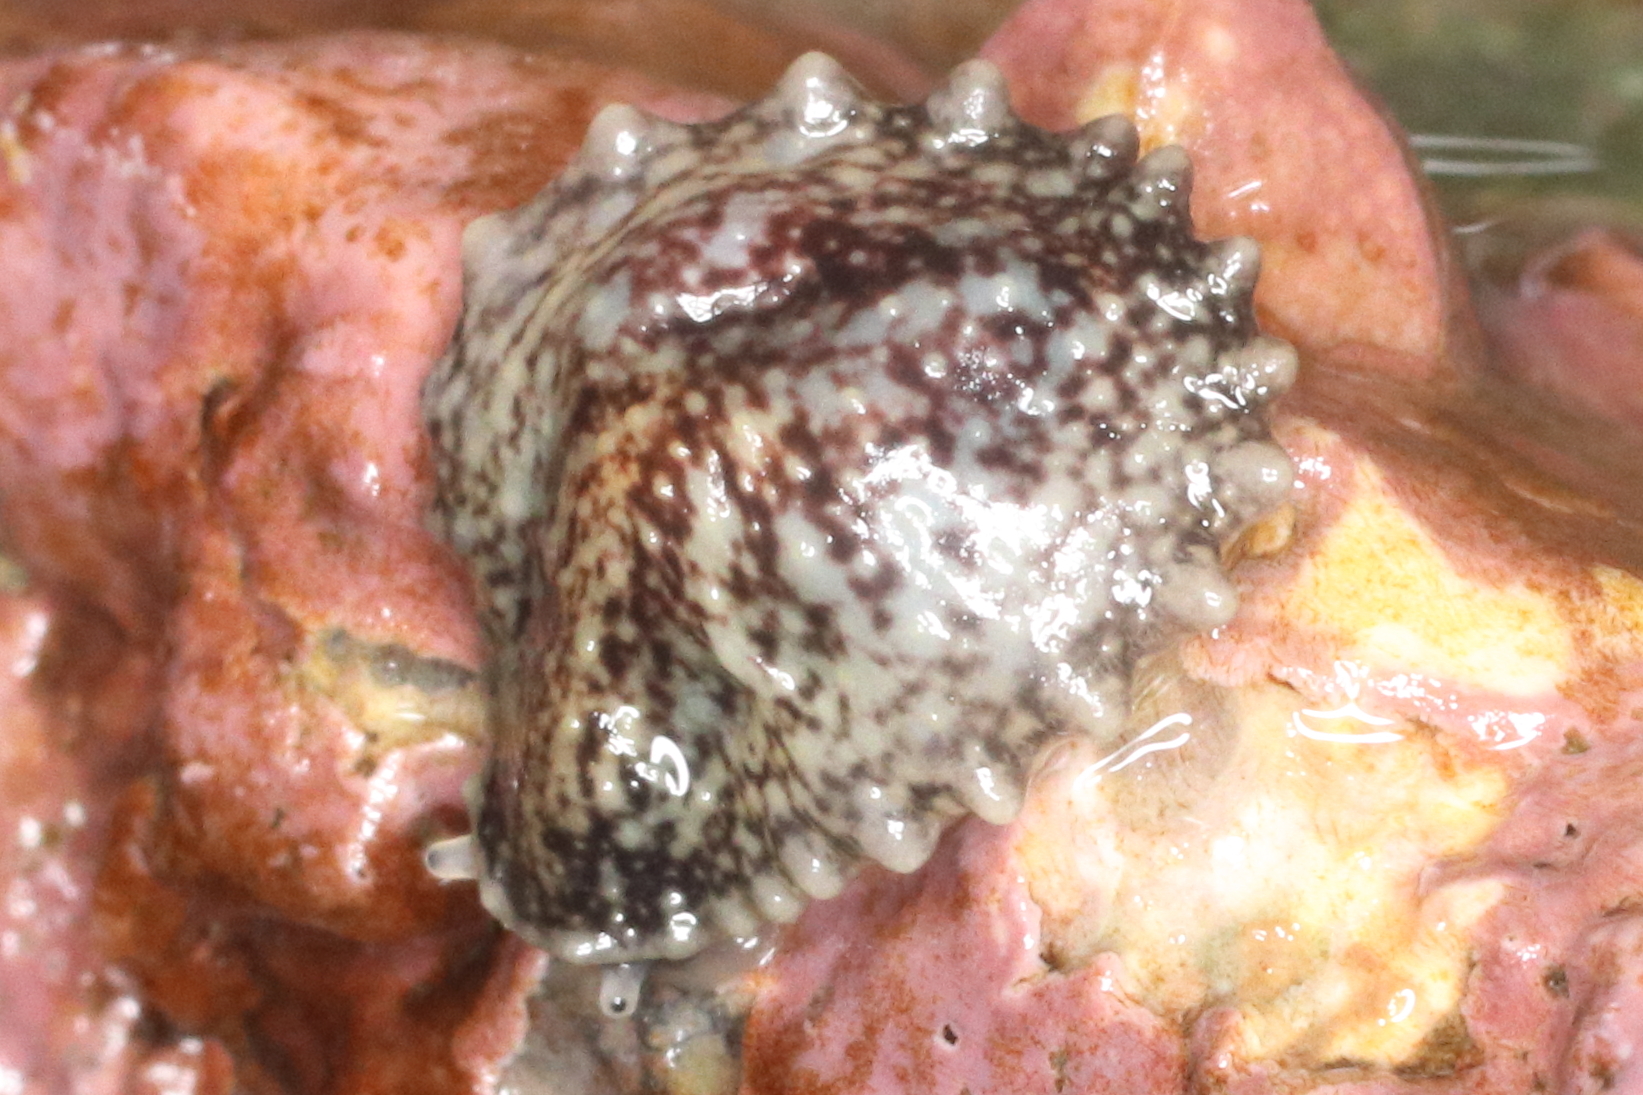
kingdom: Animalia
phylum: Mollusca
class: Gastropoda
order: Systellommatophora
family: Onchidiidae
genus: Onchidella
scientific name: Onchidella carpenteri
